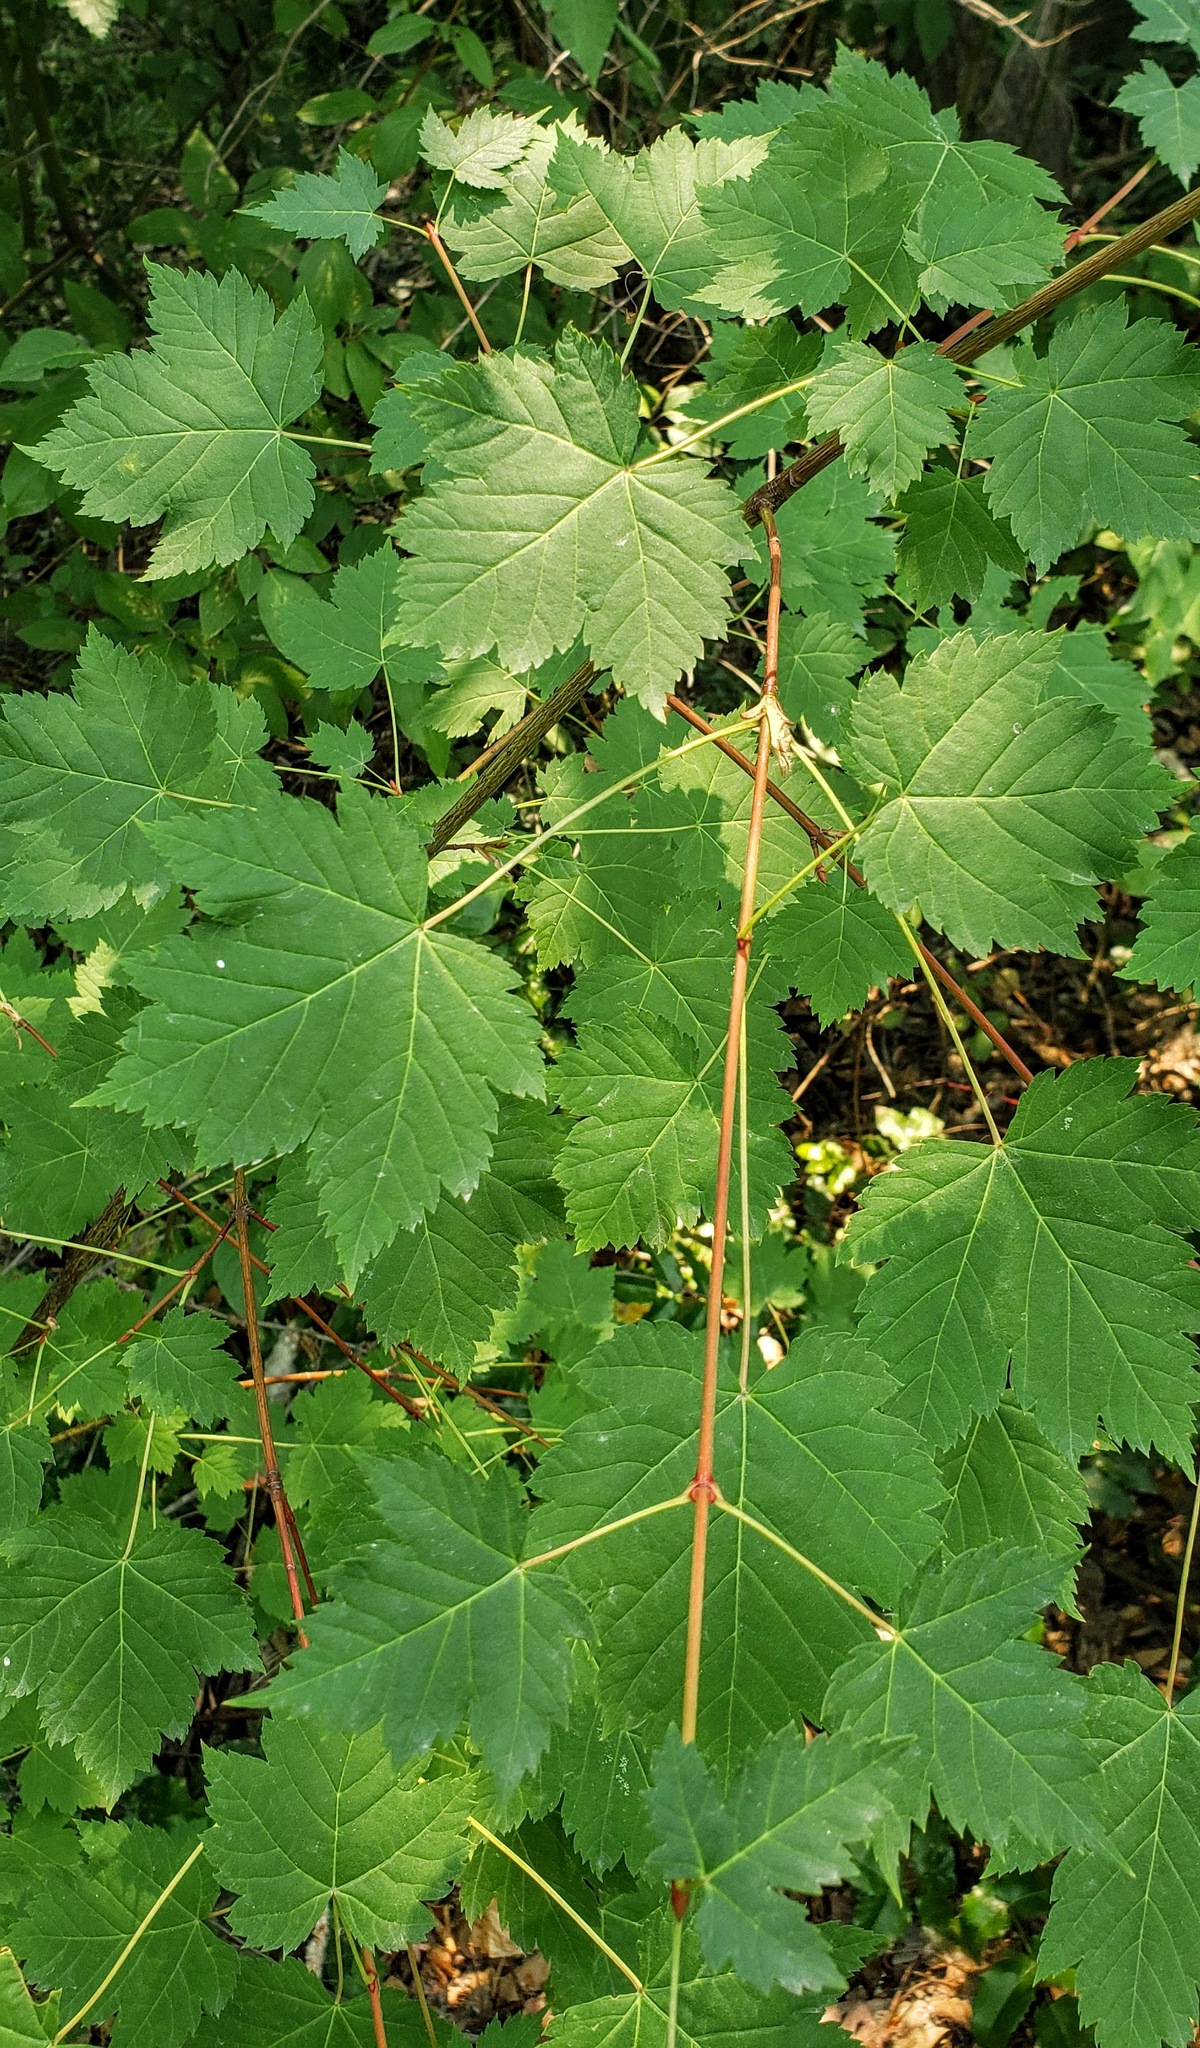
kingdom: Plantae
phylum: Tracheophyta
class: Magnoliopsida
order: Sapindales
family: Sapindaceae
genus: Acer
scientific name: Acer glabrum
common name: Rocky mountain maple
